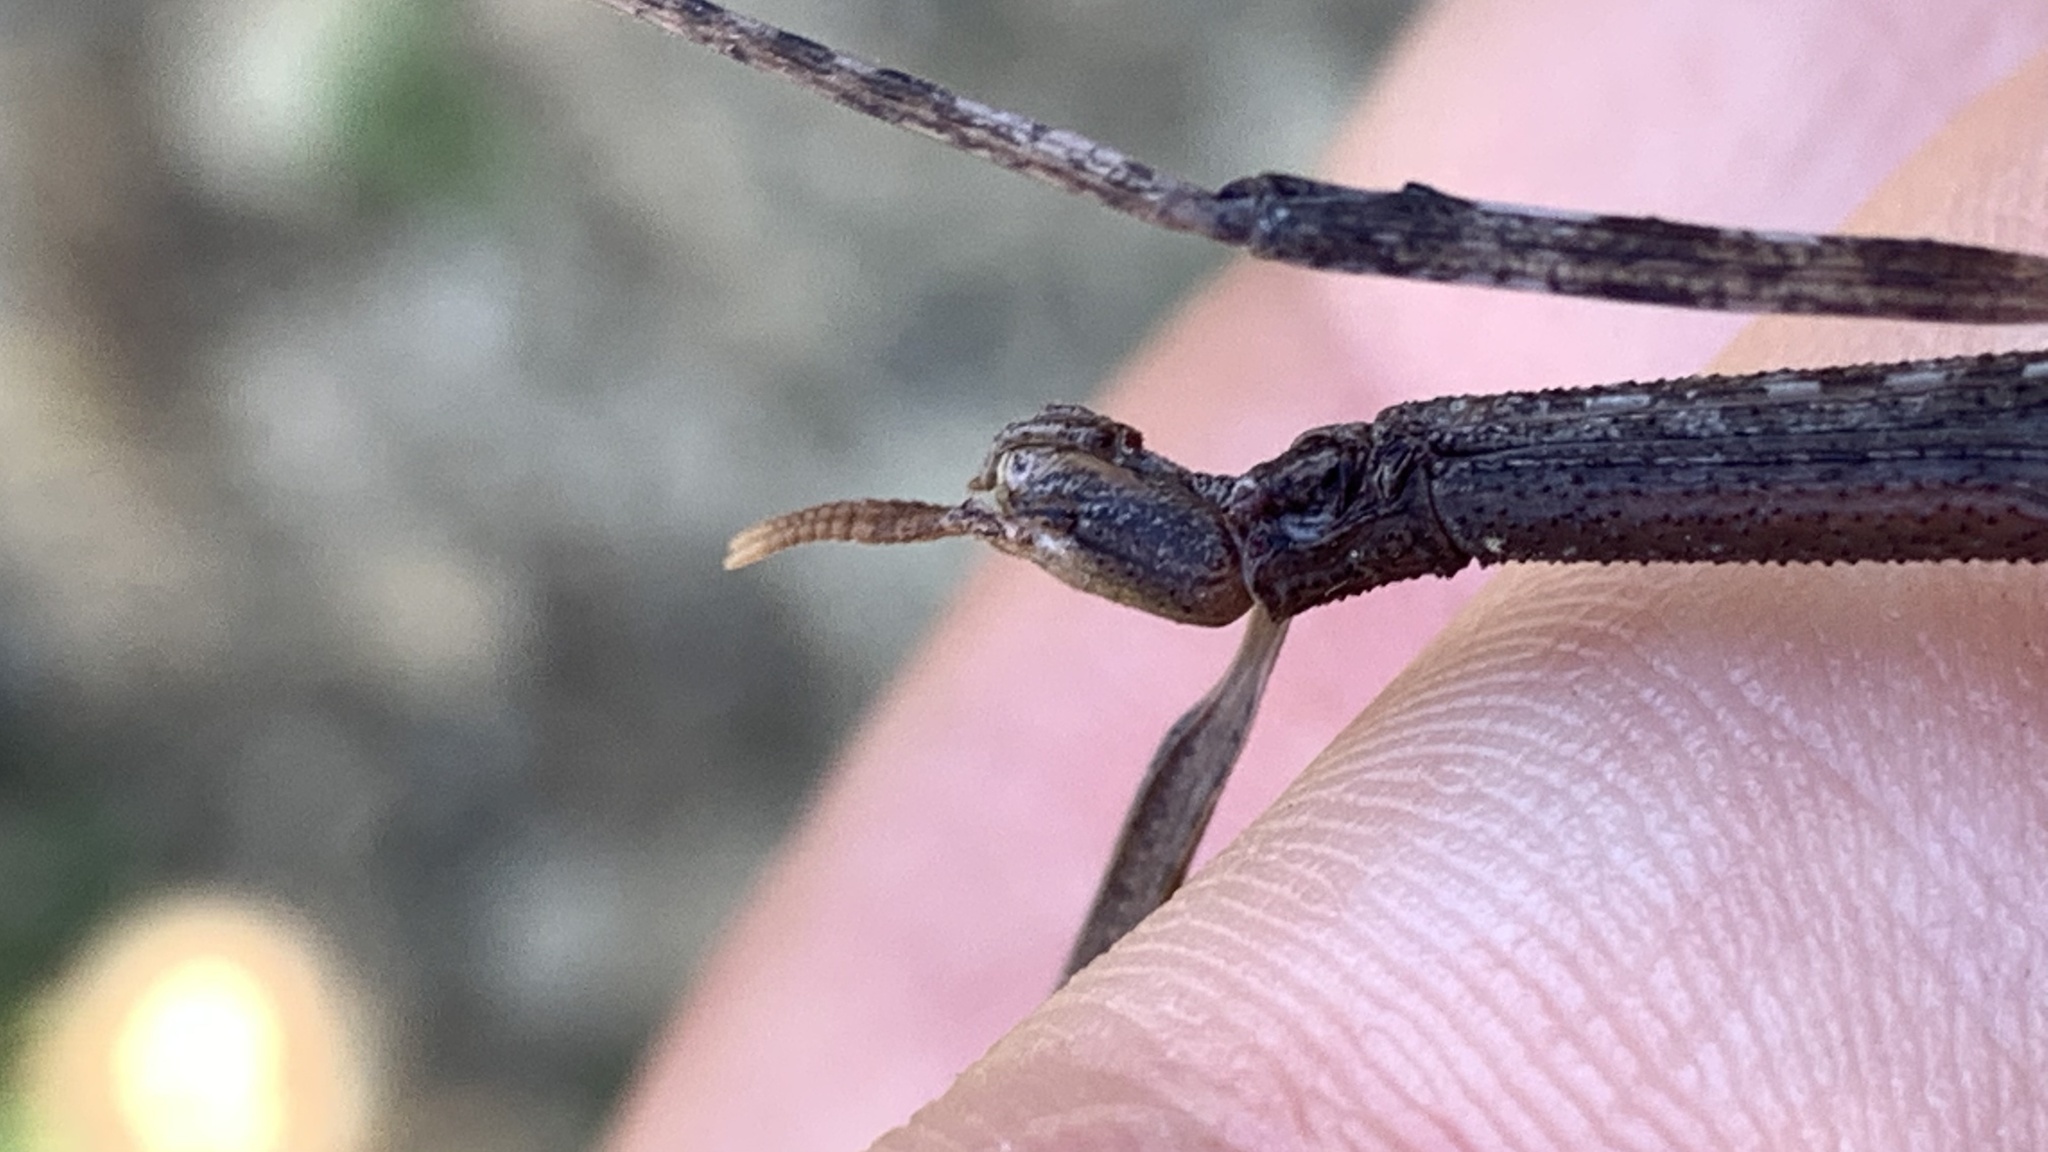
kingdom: Animalia
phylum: Arthropoda
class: Insecta
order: Phasmida
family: Bacillidae
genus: Clonopsis
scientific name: Clonopsis gallica
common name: French stick insect
